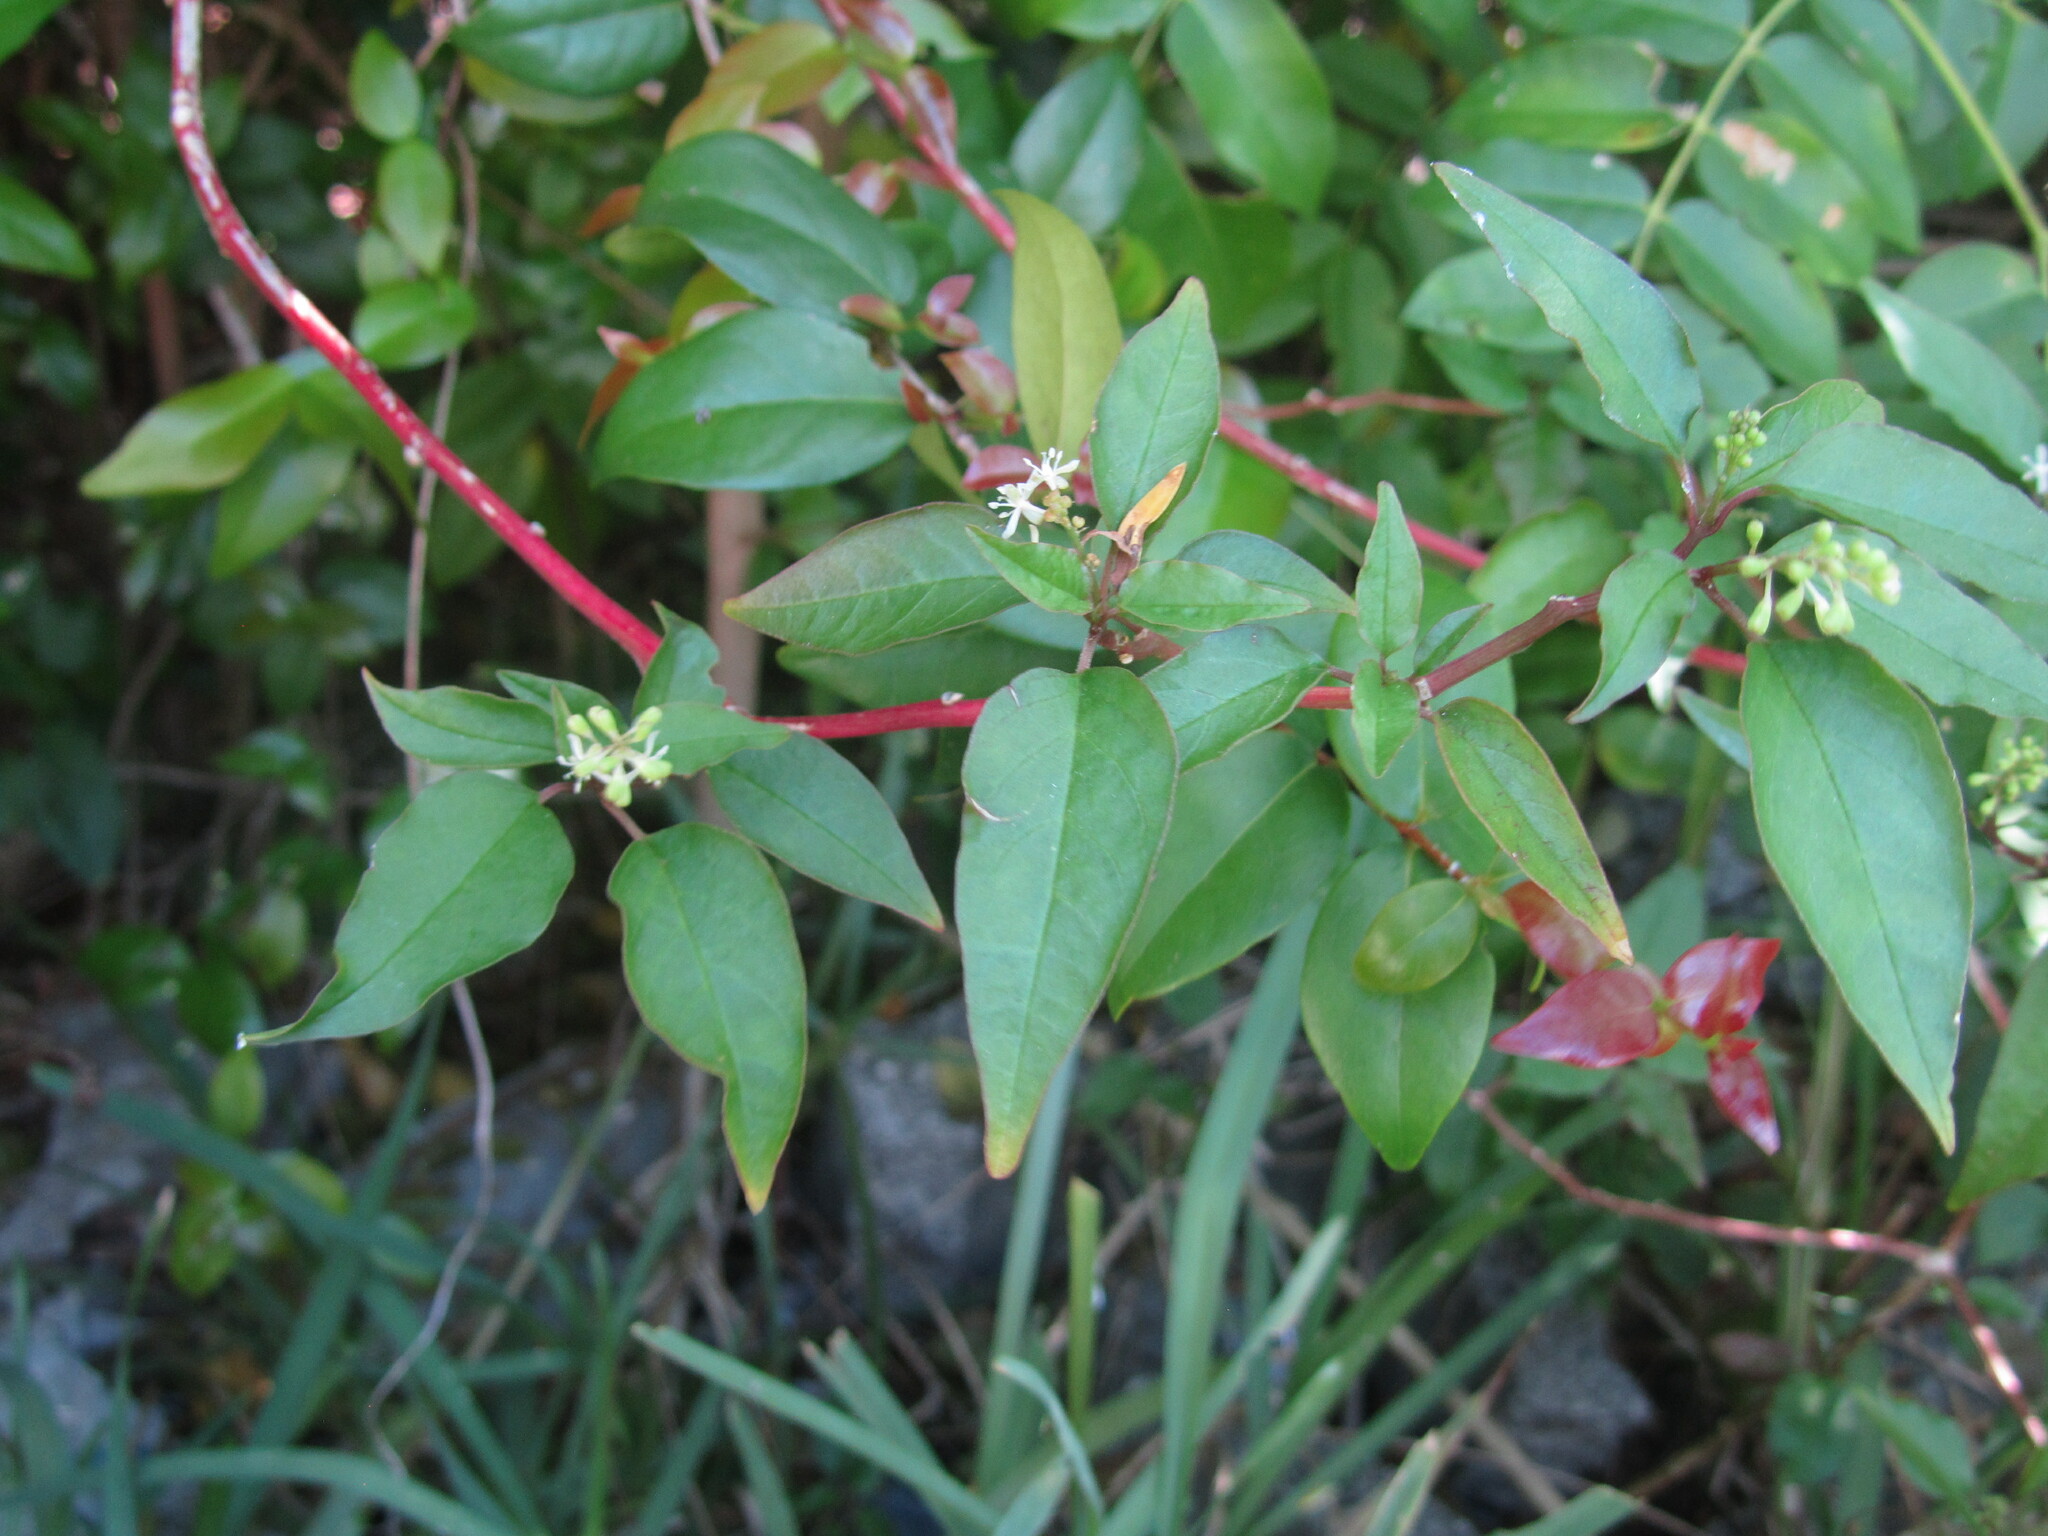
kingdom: Plantae
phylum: Tracheophyta
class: Magnoliopsida
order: Caryophyllales
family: Phytolaccaceae
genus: Rivina
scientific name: Rivina humilis
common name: Rougeplant
